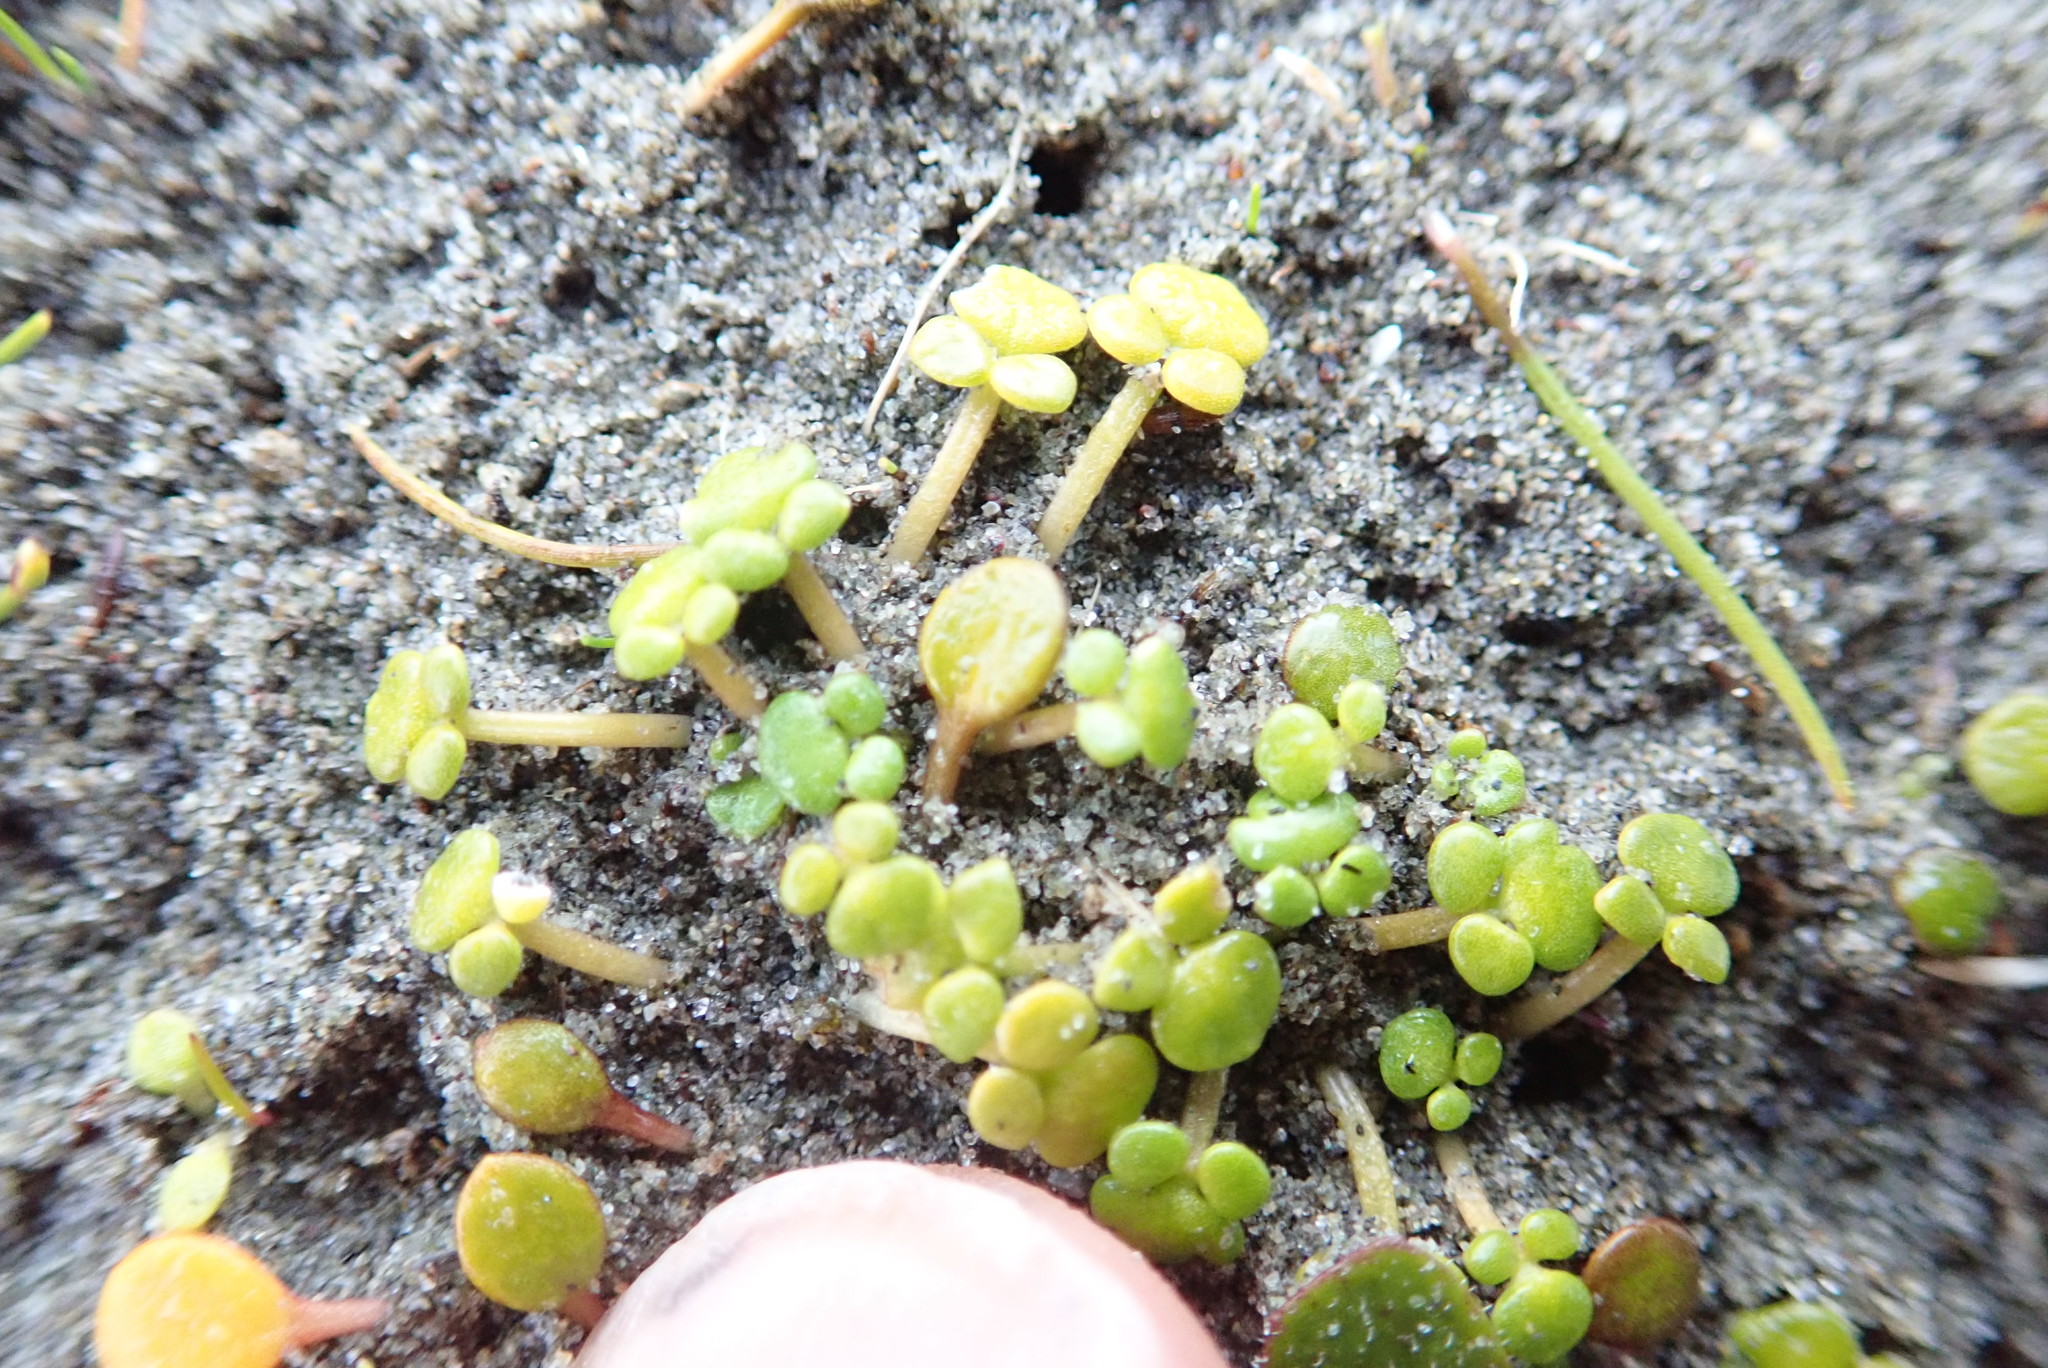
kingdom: Plantae
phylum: Tracheophyta
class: Magnoliopsida
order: Ranunculales
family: Ranunculaceae
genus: Ranunculus
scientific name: Ranunculus acaulis
